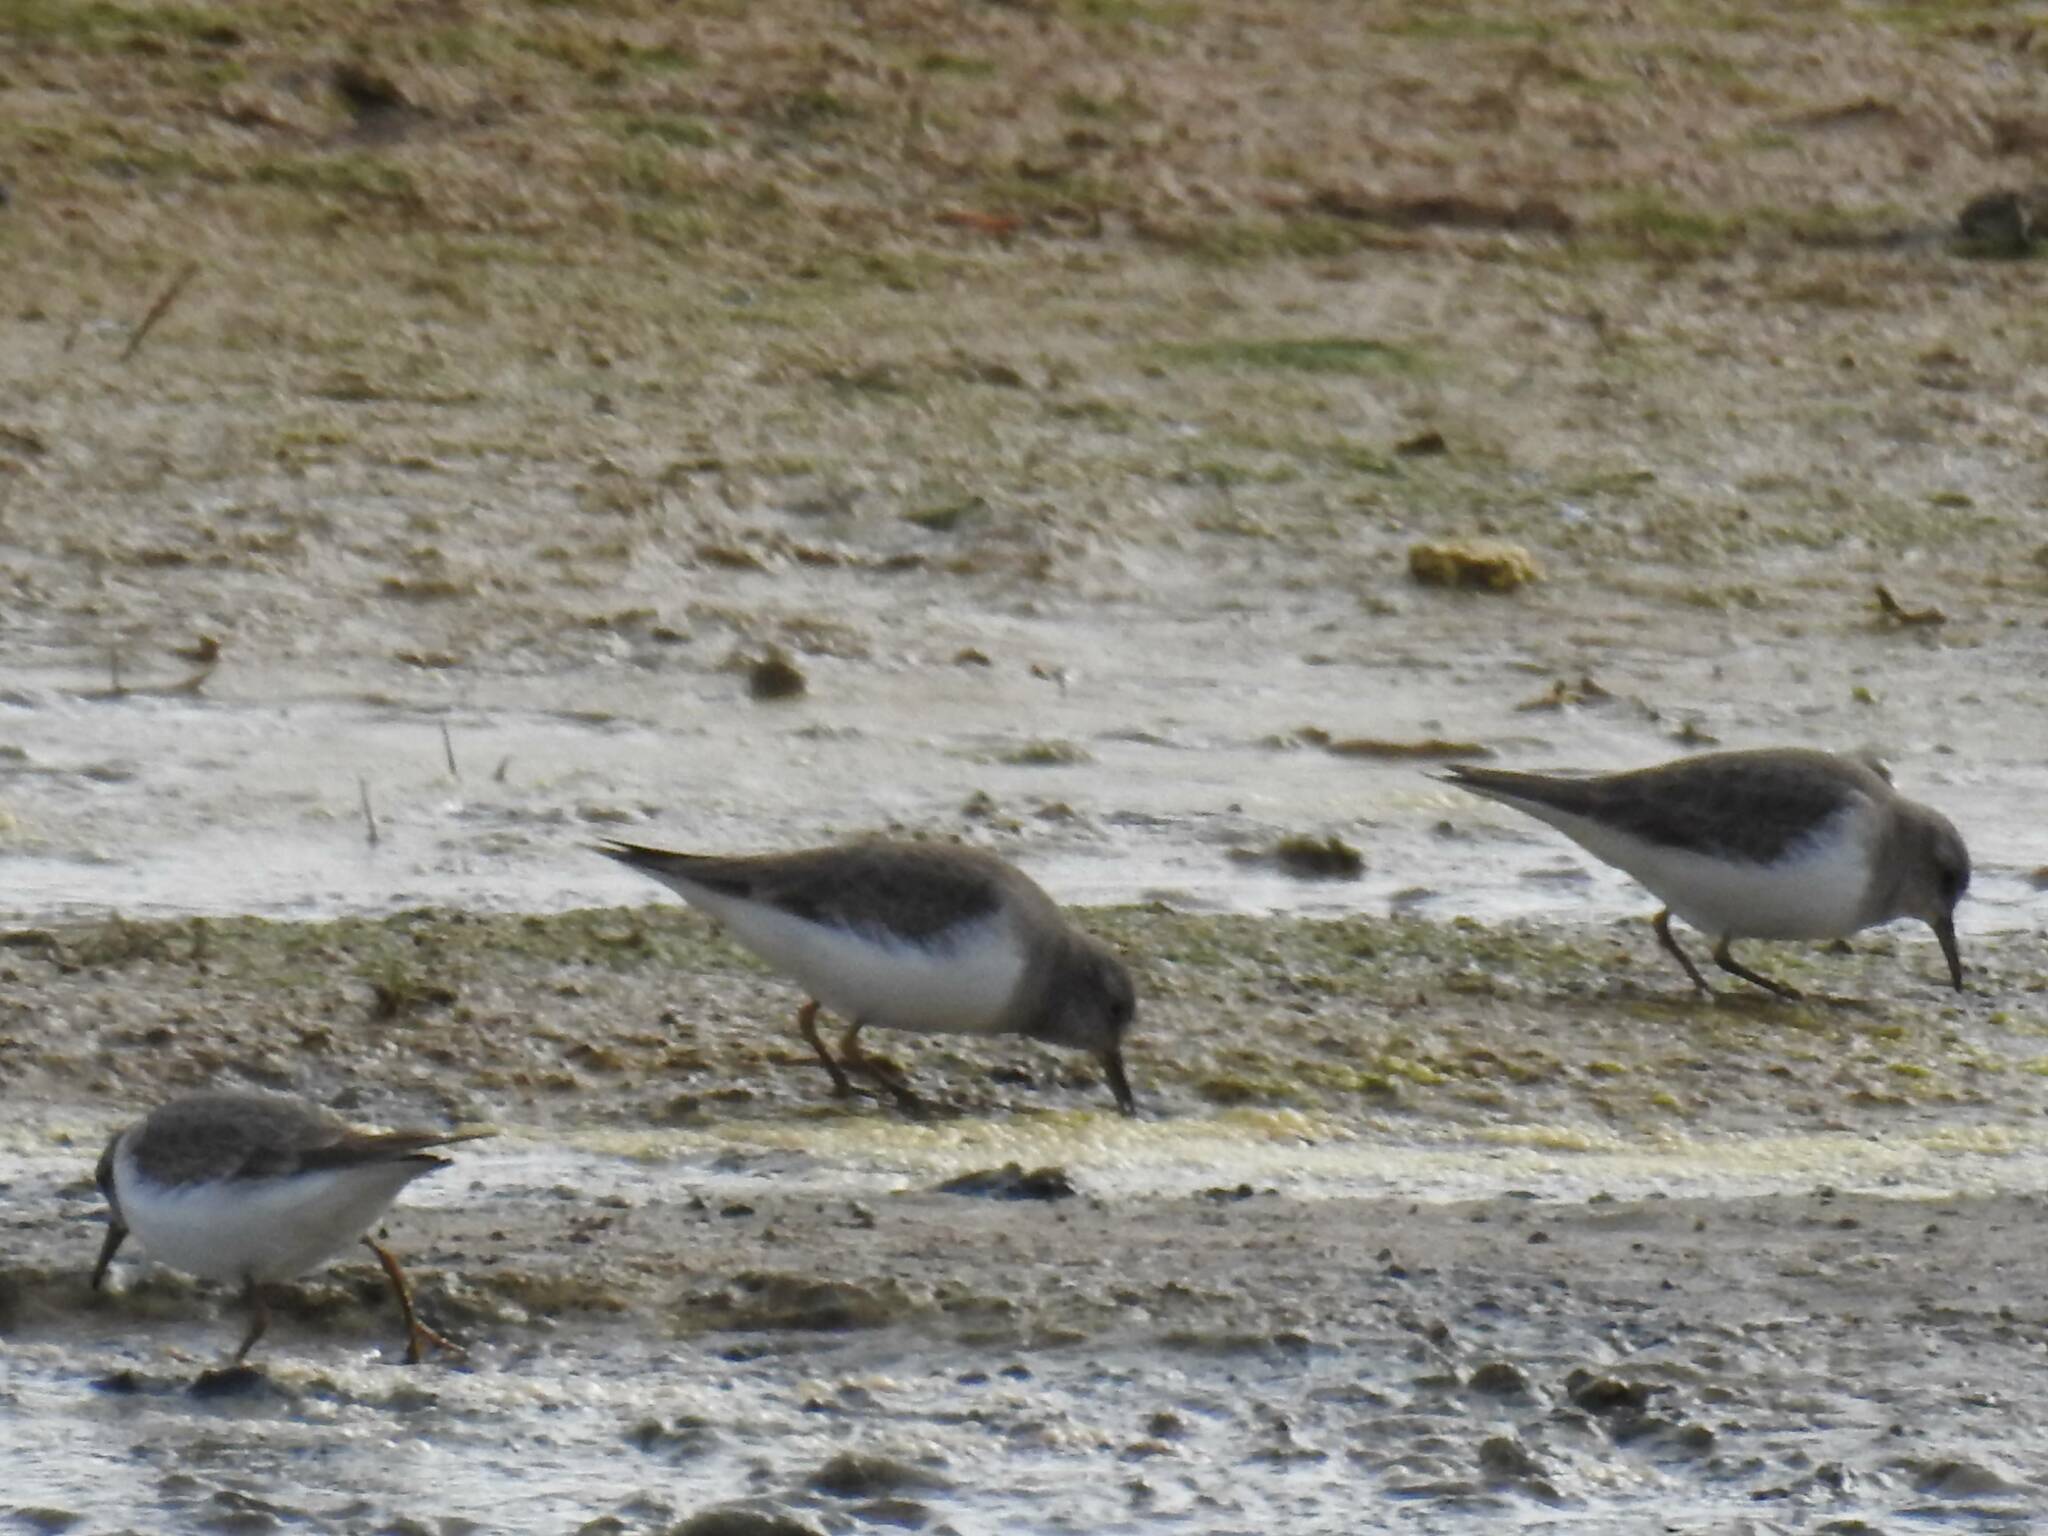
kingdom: Animalia
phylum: Chordata
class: Aves
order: Charadriiformes
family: Scolopacidae
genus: Calidris
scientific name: Calidris temminckii
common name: Temminck's stint
